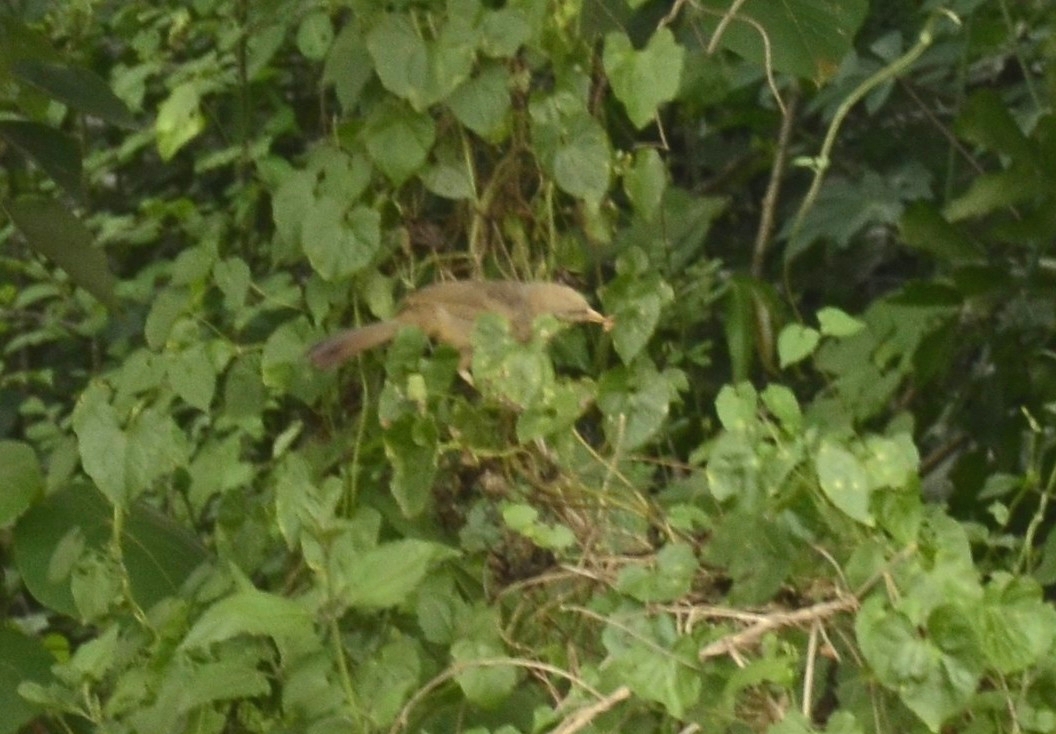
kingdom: Animalia
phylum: Chordata
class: Aves
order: Passeriformes
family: Leiothrichidae
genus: Turdoides
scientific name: Turdoides affinis
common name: Yellow-billed babbler
